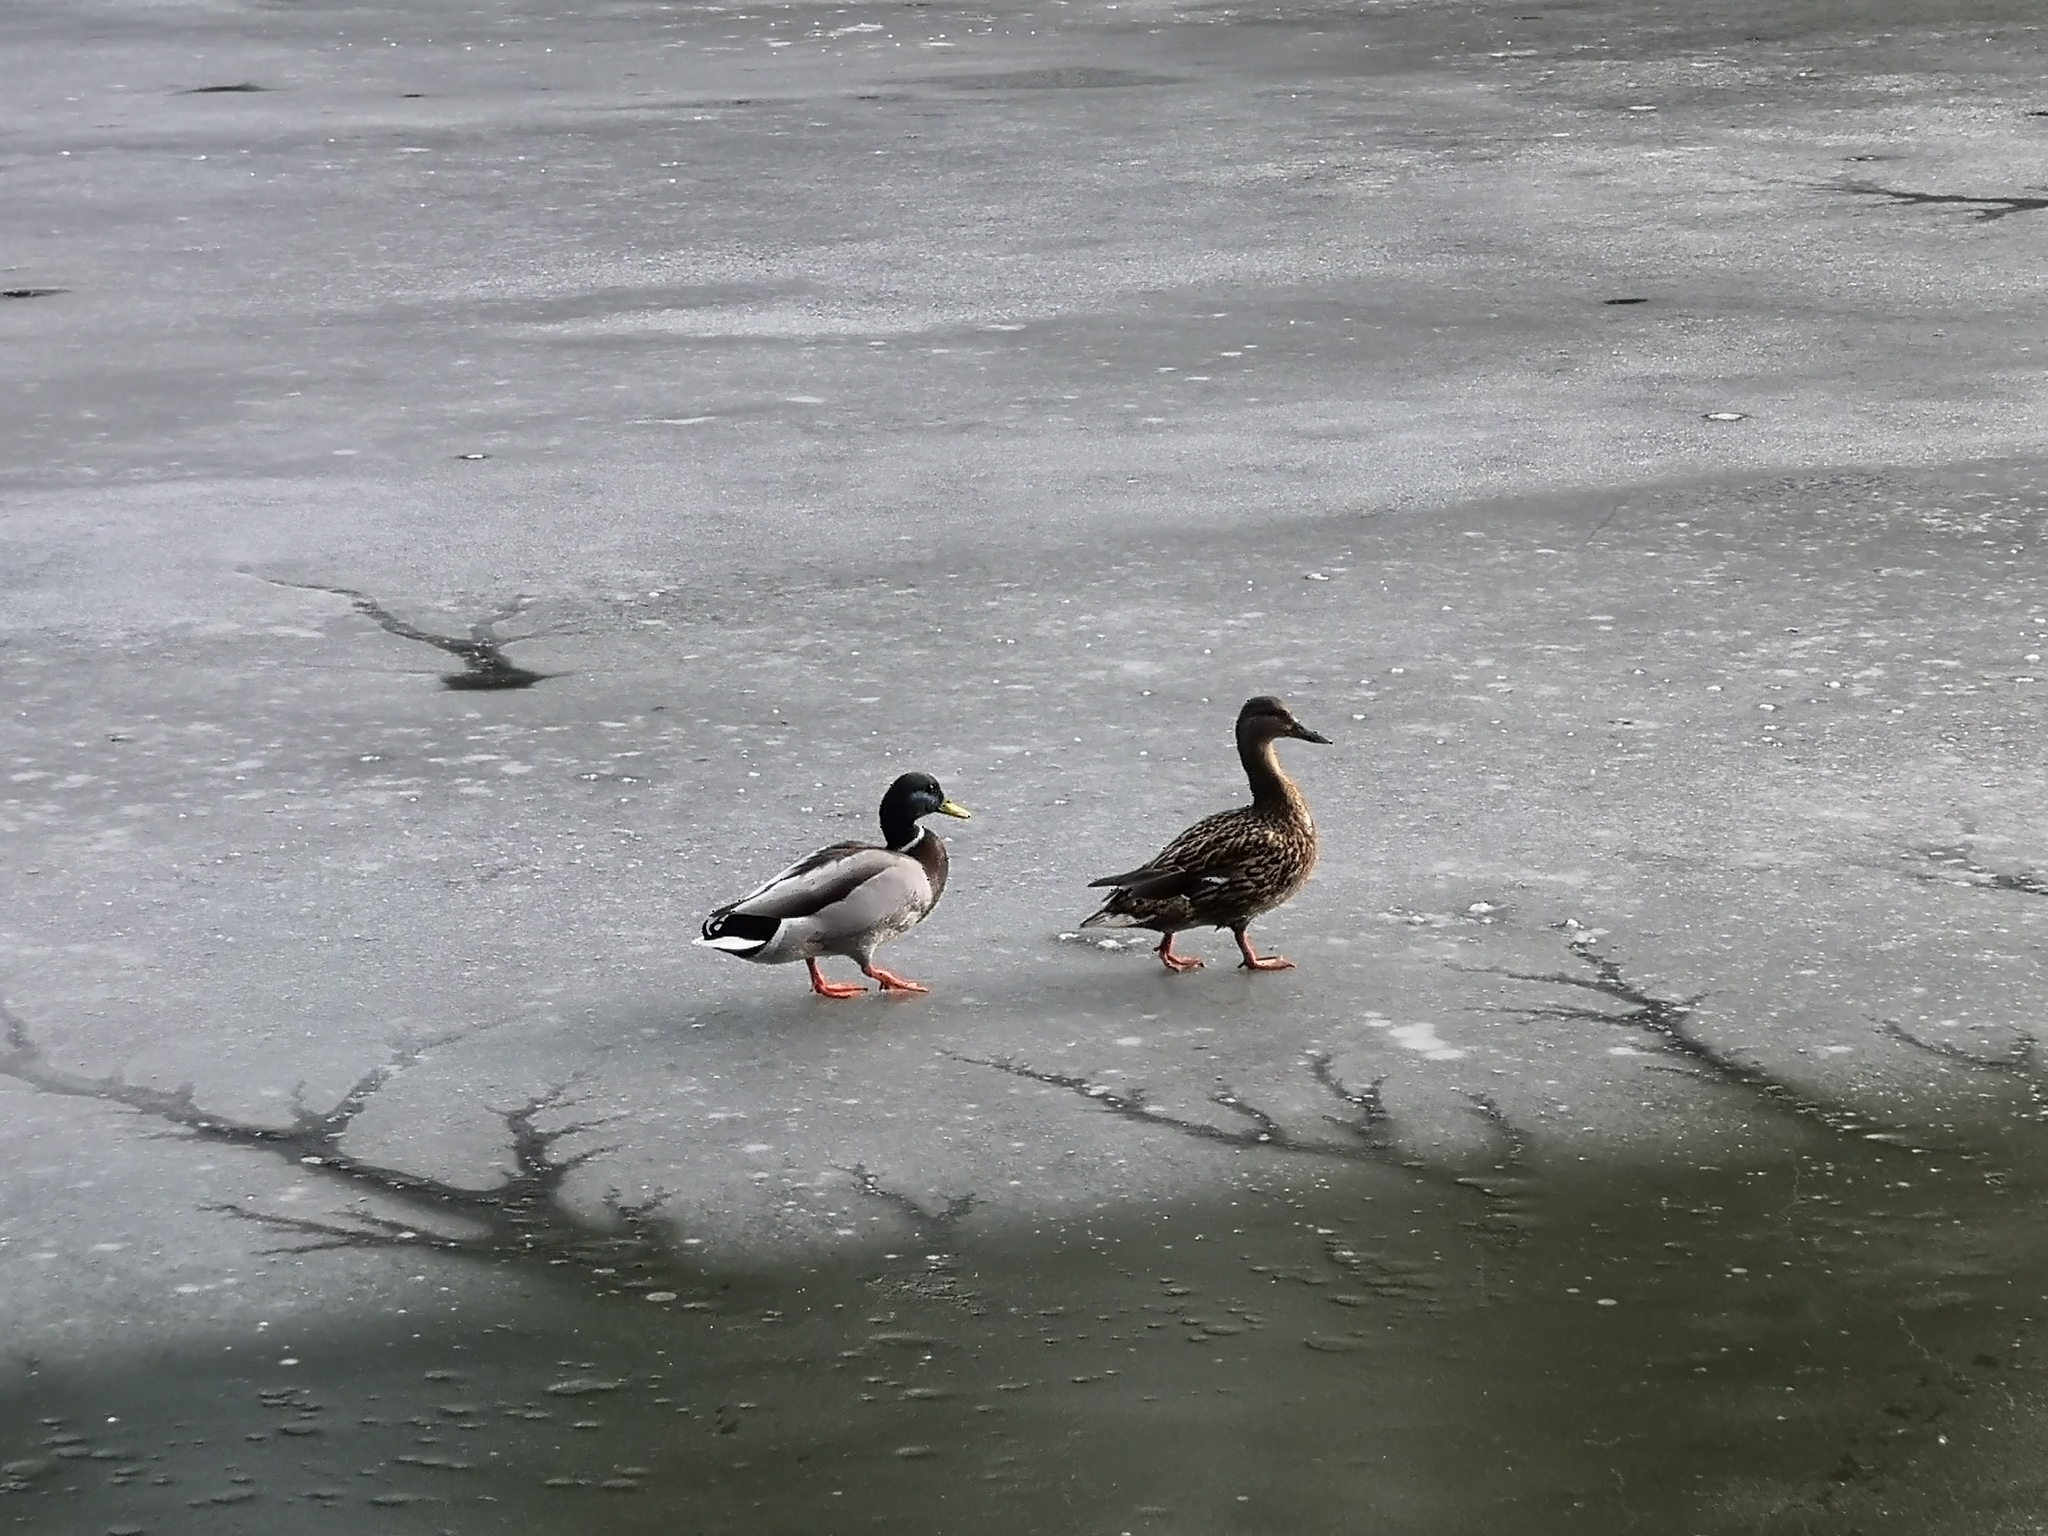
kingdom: Animalia
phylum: Chordata
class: Aves
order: Anseriformes
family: Anatidae
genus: Anas
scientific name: Anas platyrhynchos
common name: Mallard
